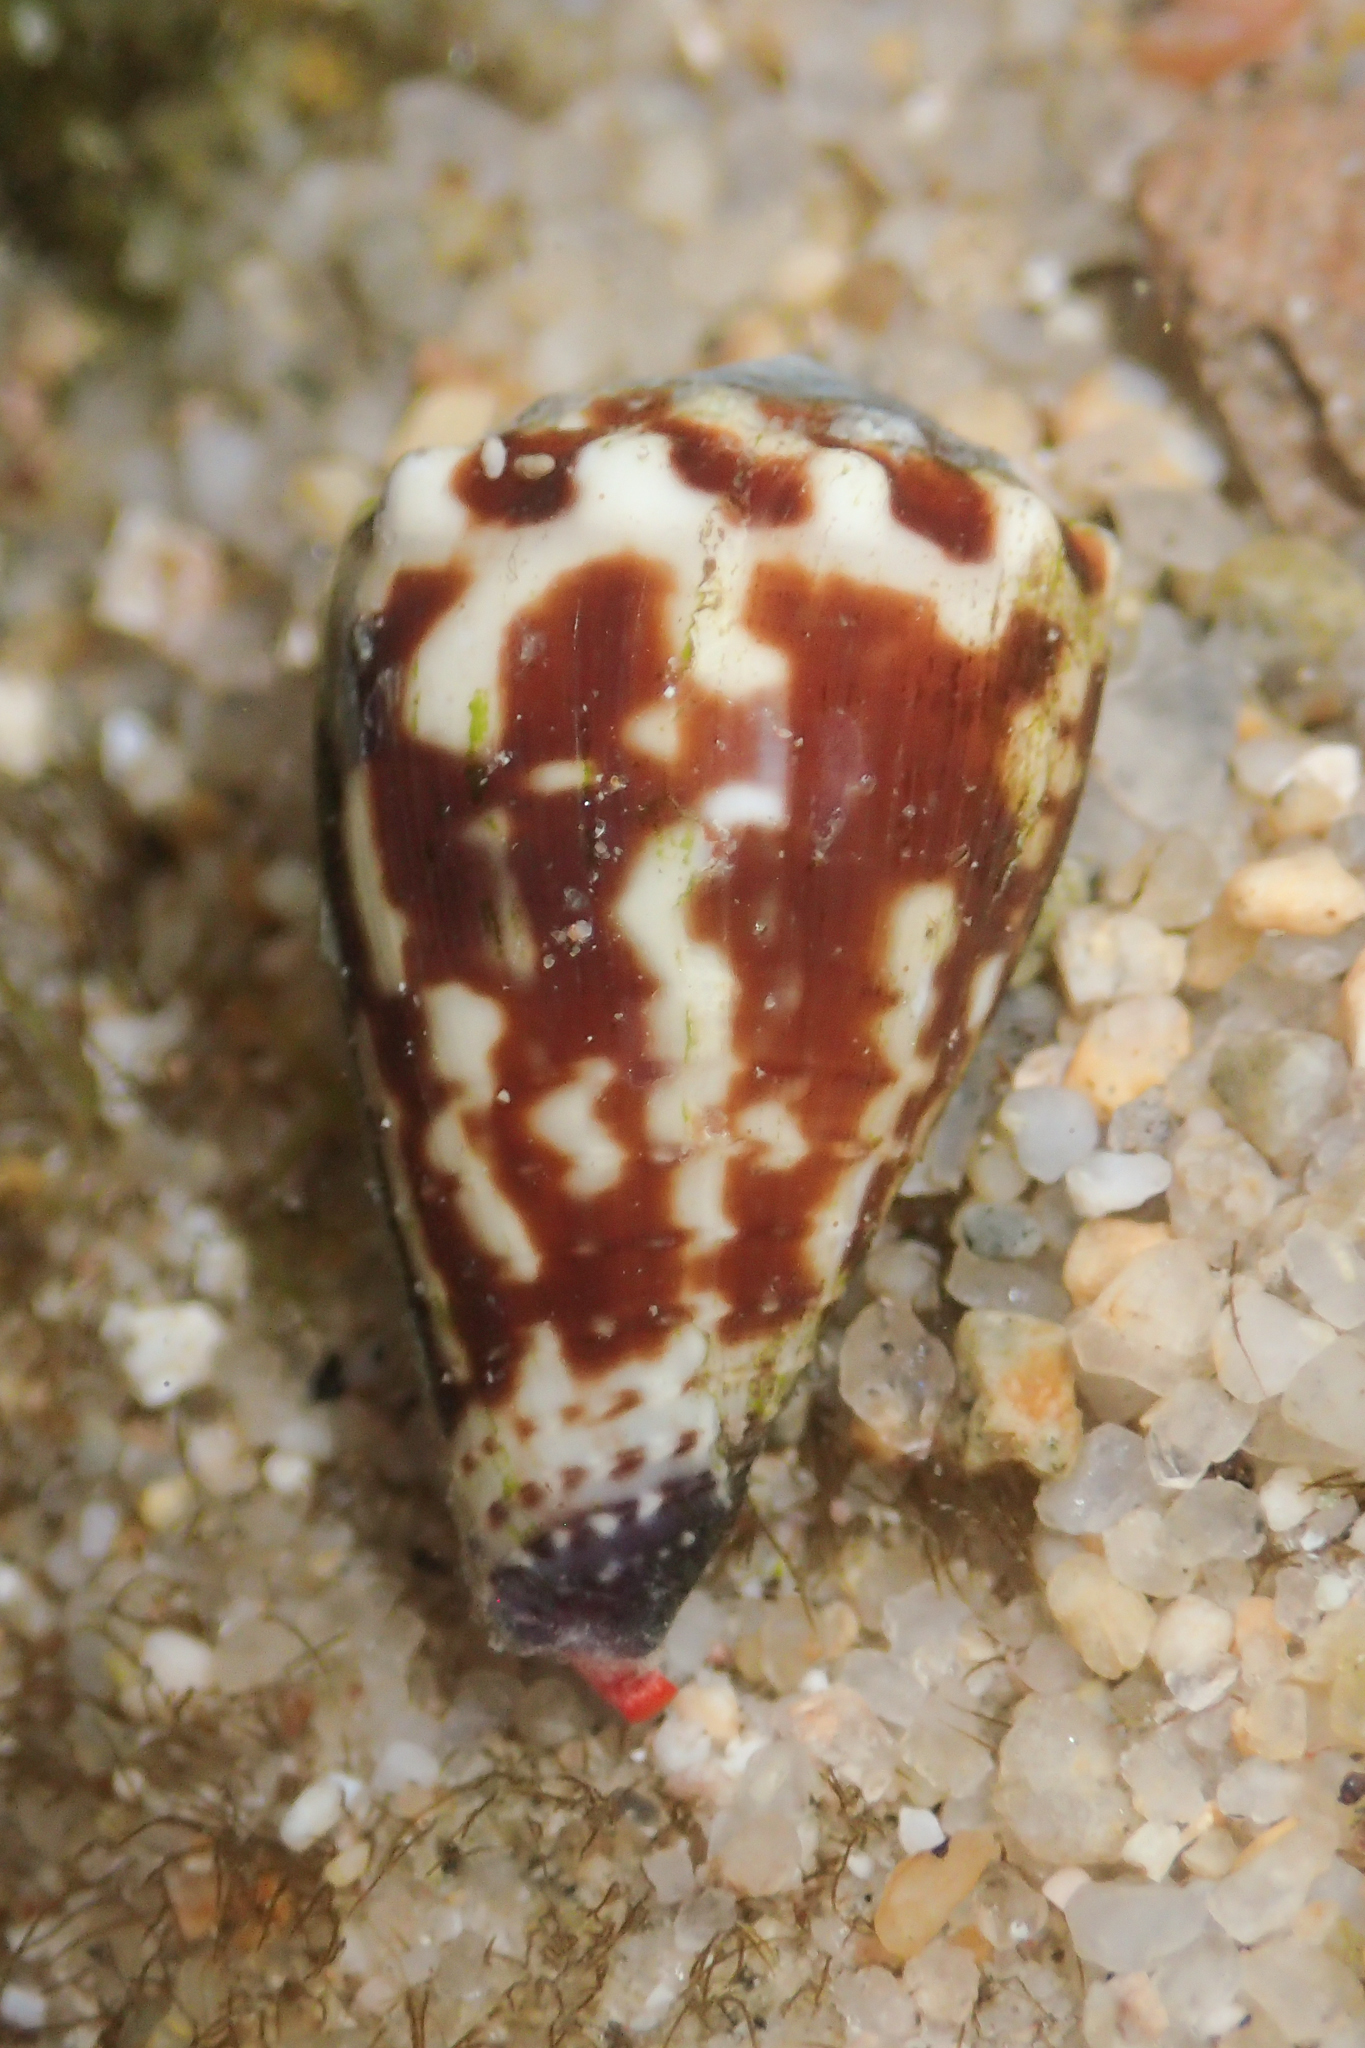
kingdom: Animalia
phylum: Mollusca
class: Gastropoda
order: Neogastropoda
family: Conidae
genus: Conus
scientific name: Conus nux
